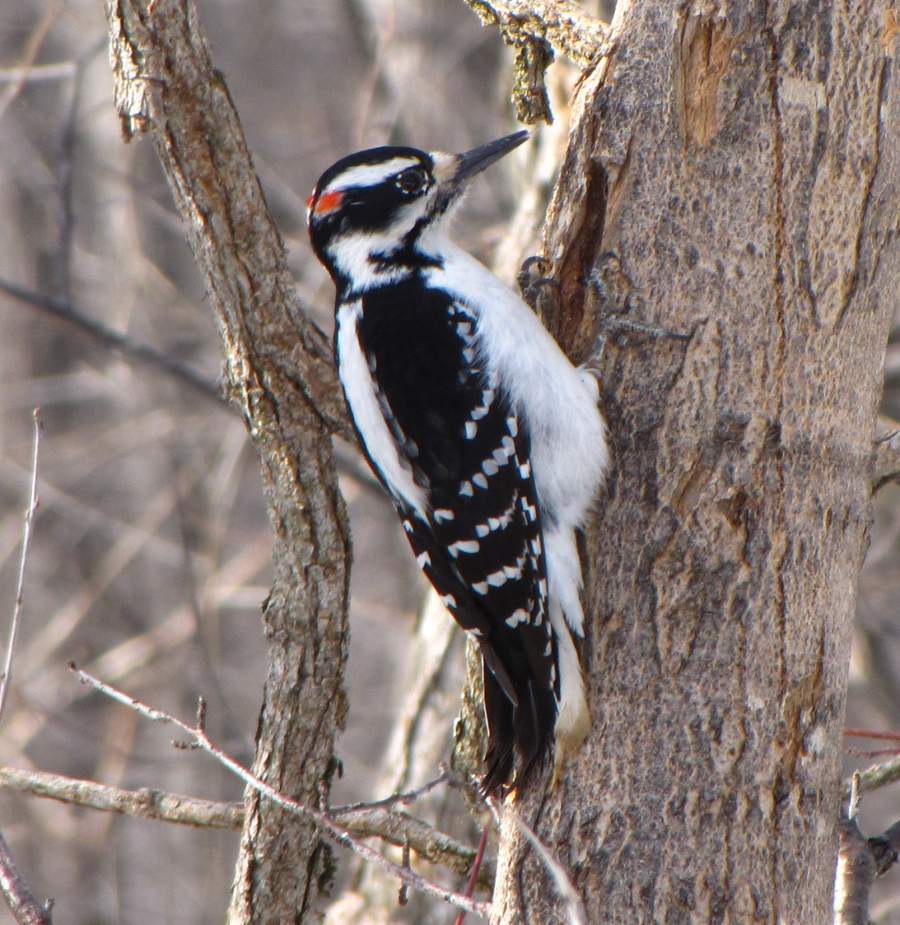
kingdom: Animalia
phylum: Chordata
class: Aves
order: Piciformes
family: Picidae
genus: Leuconotopicus
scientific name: Leuconotopicus villosus
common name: Hairy woodpecker
